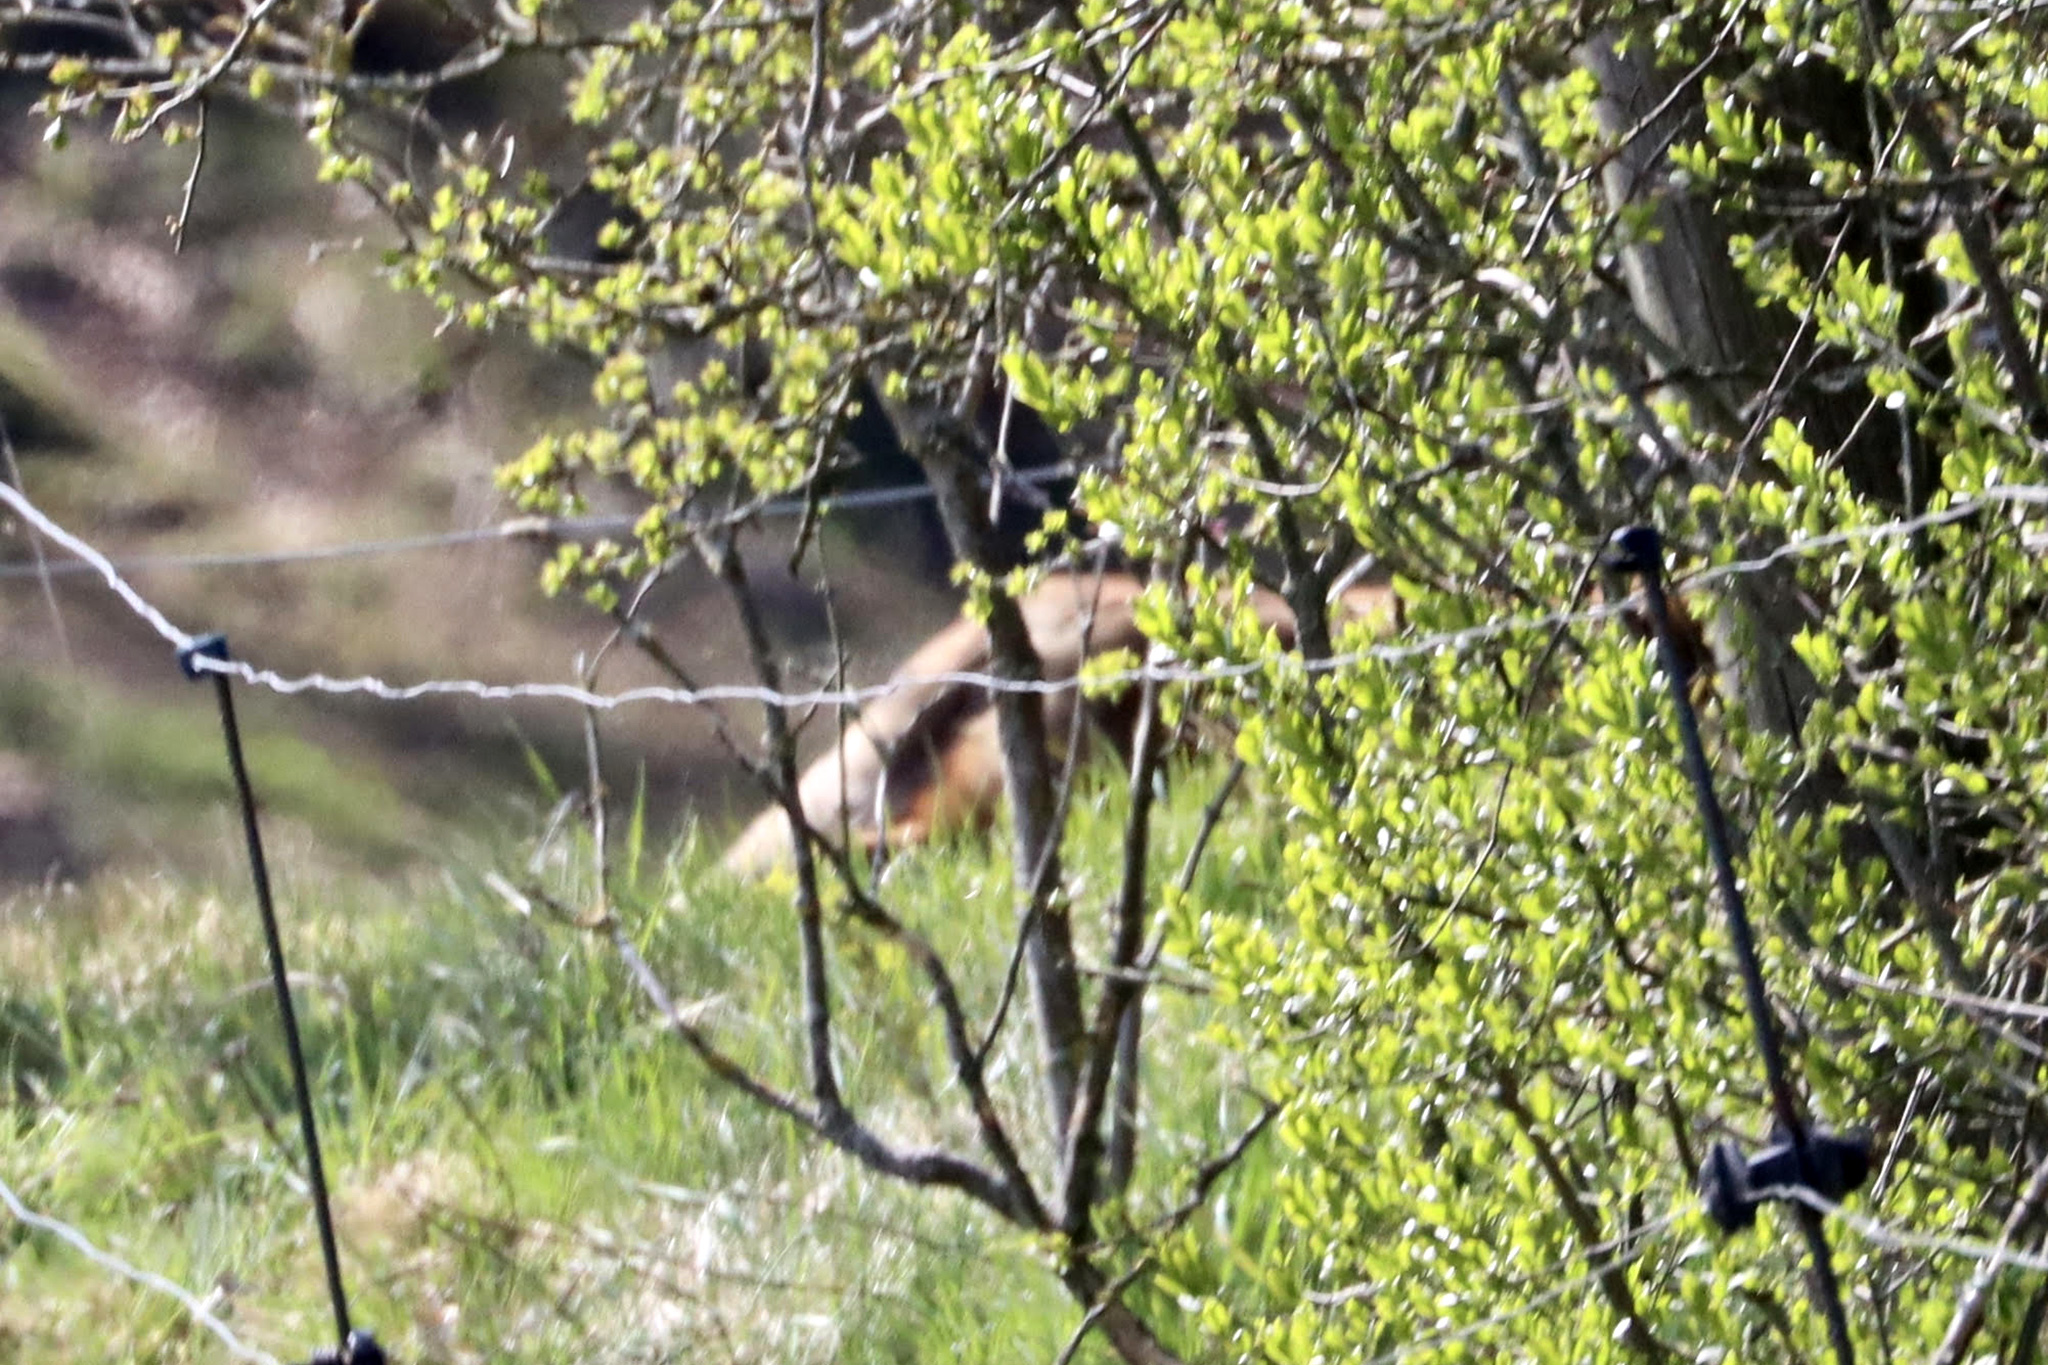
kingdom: Animalia
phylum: Chordata
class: Mammalia
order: Carnivora
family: Canidae
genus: Vulpes
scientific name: Vulpes vulpes
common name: Red fox
